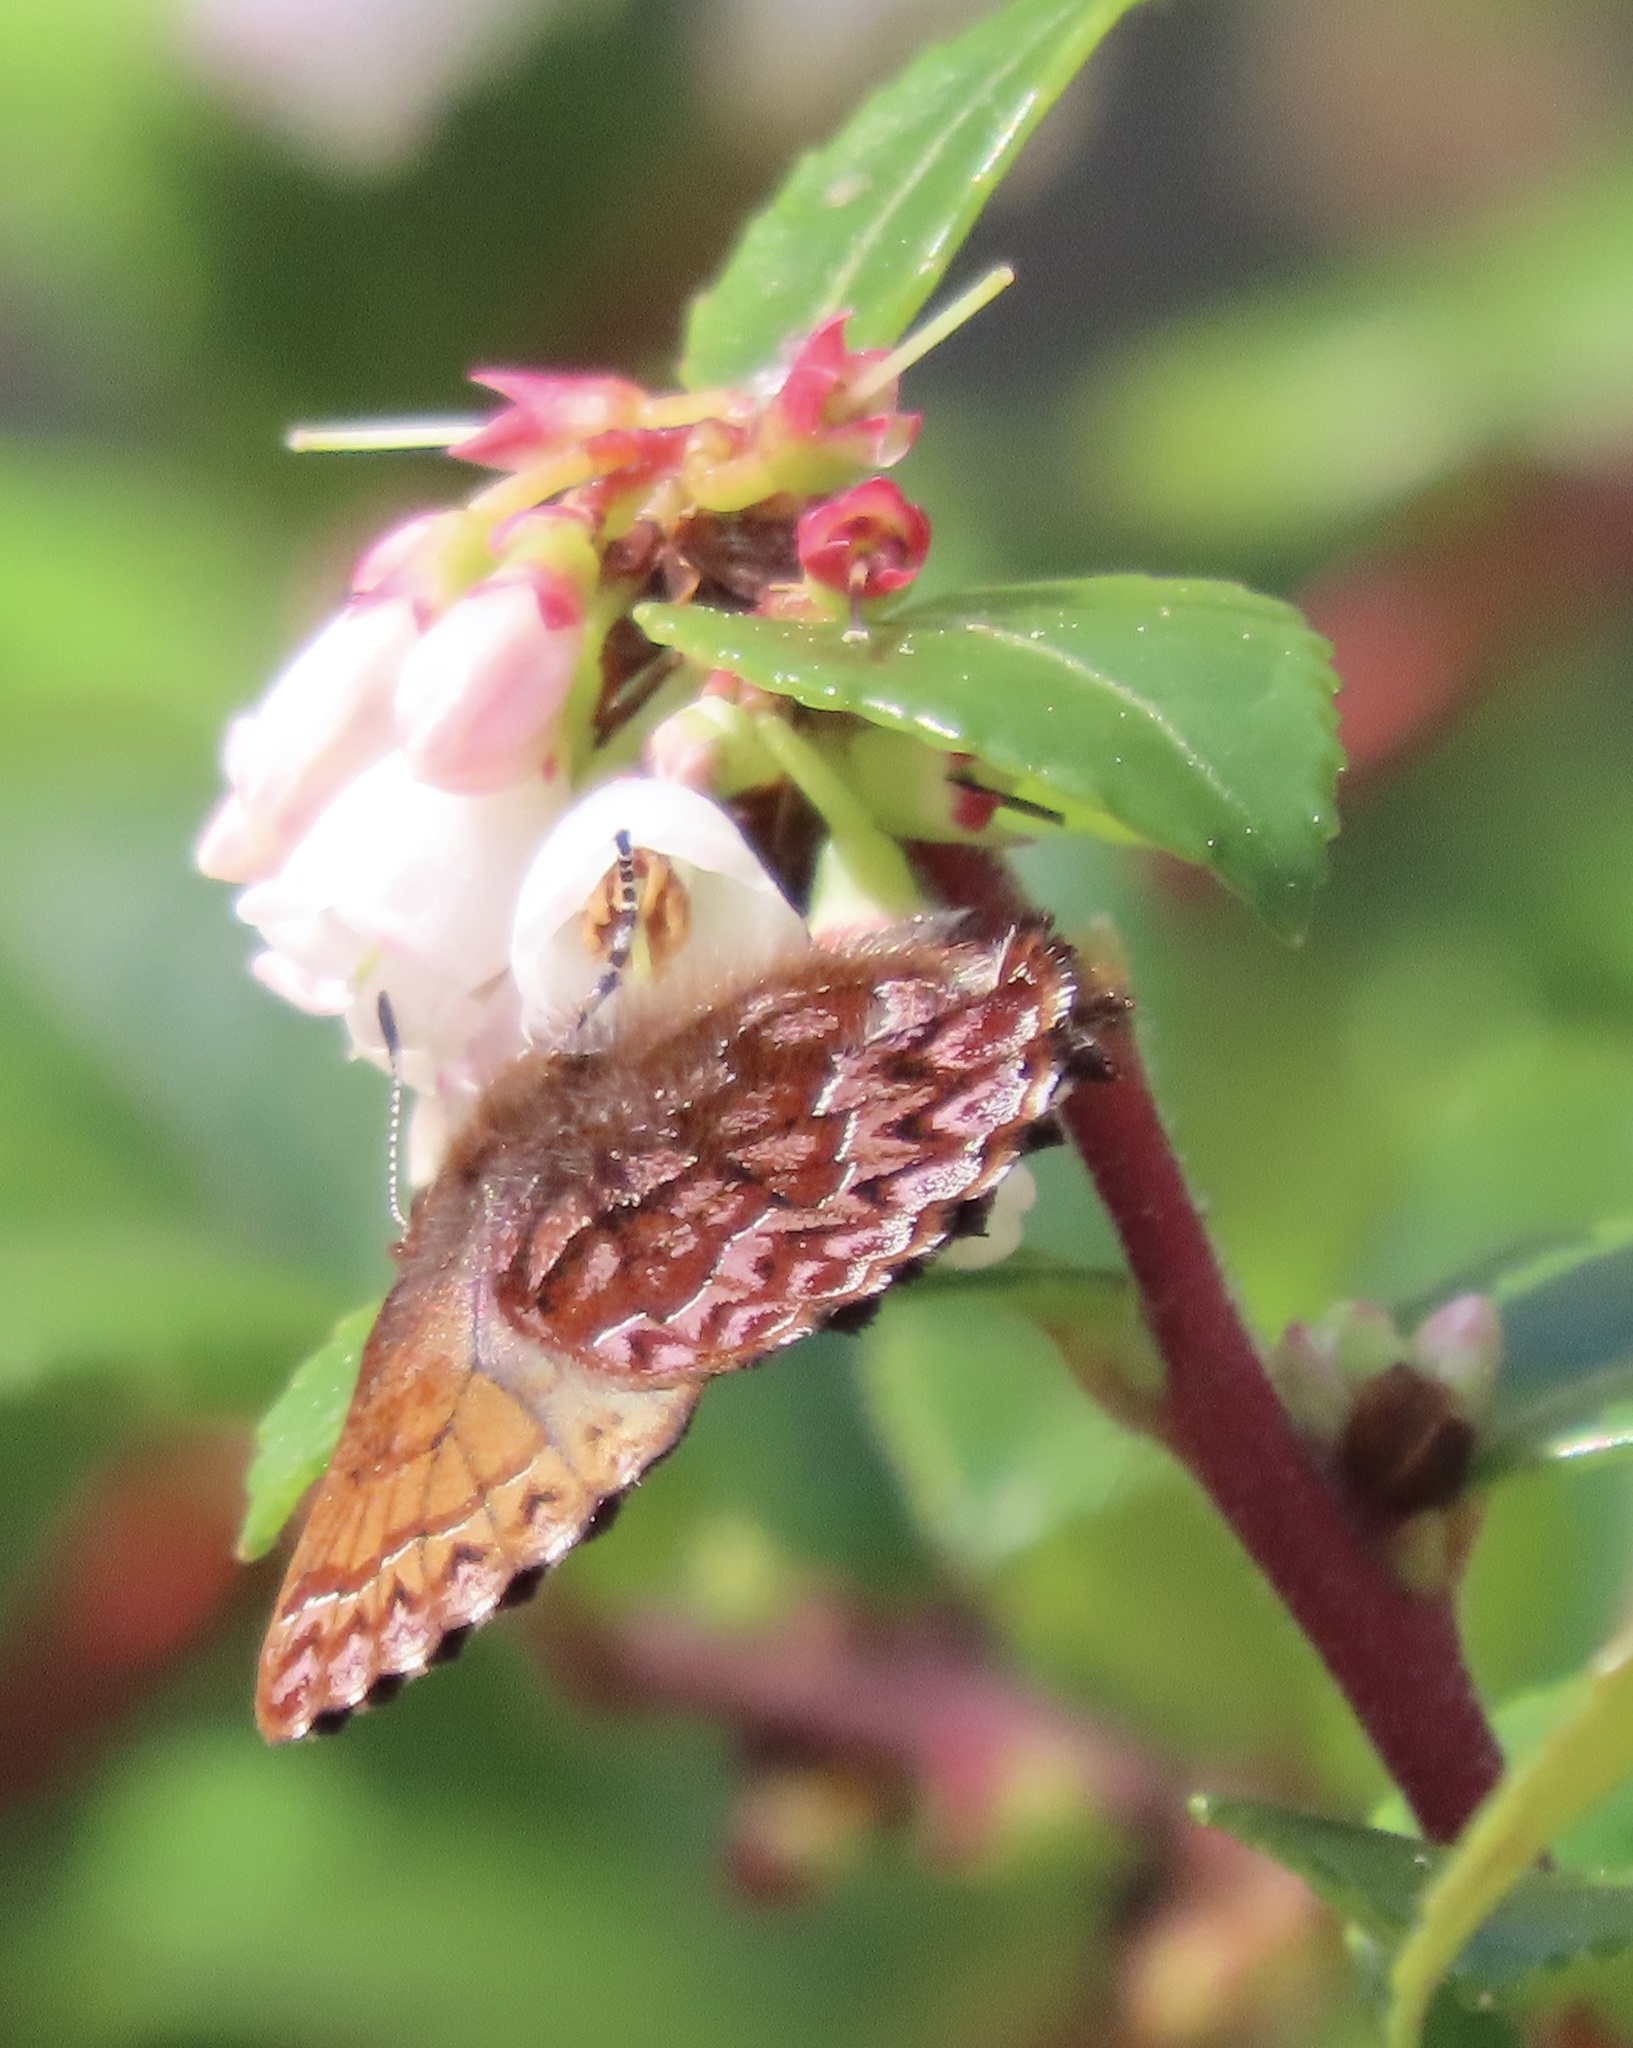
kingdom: Animalia
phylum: Arthropoda
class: Insecta
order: Lepidoptera
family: Lycaenidae
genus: Incisalia
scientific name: Incisalia eryphon
